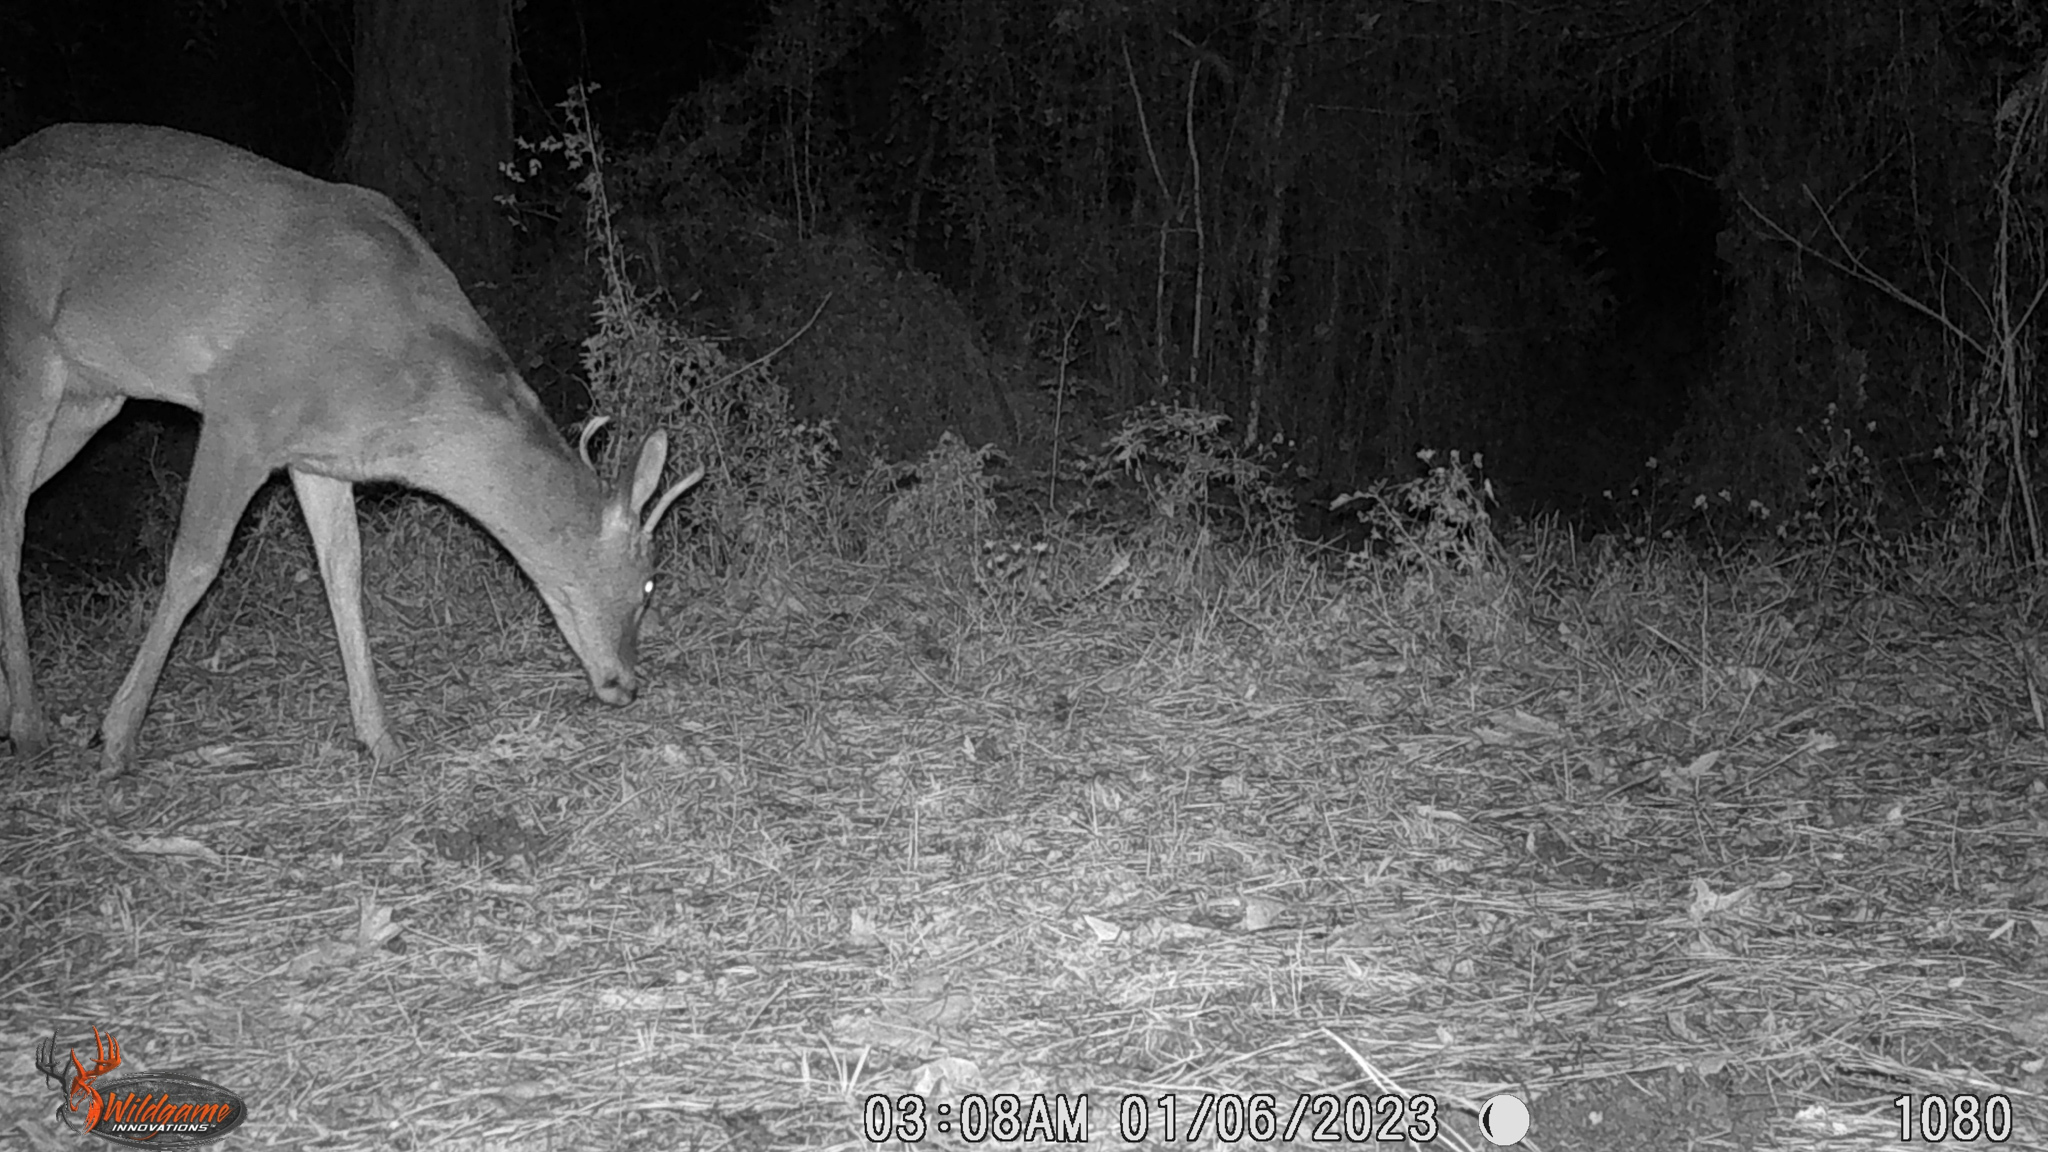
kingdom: Animalia
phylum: Chordata
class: Mammalia
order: Artiodactyla
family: Cervidae
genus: Odocoileus
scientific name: Odocoileus virginianus
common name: White-tailed deer
